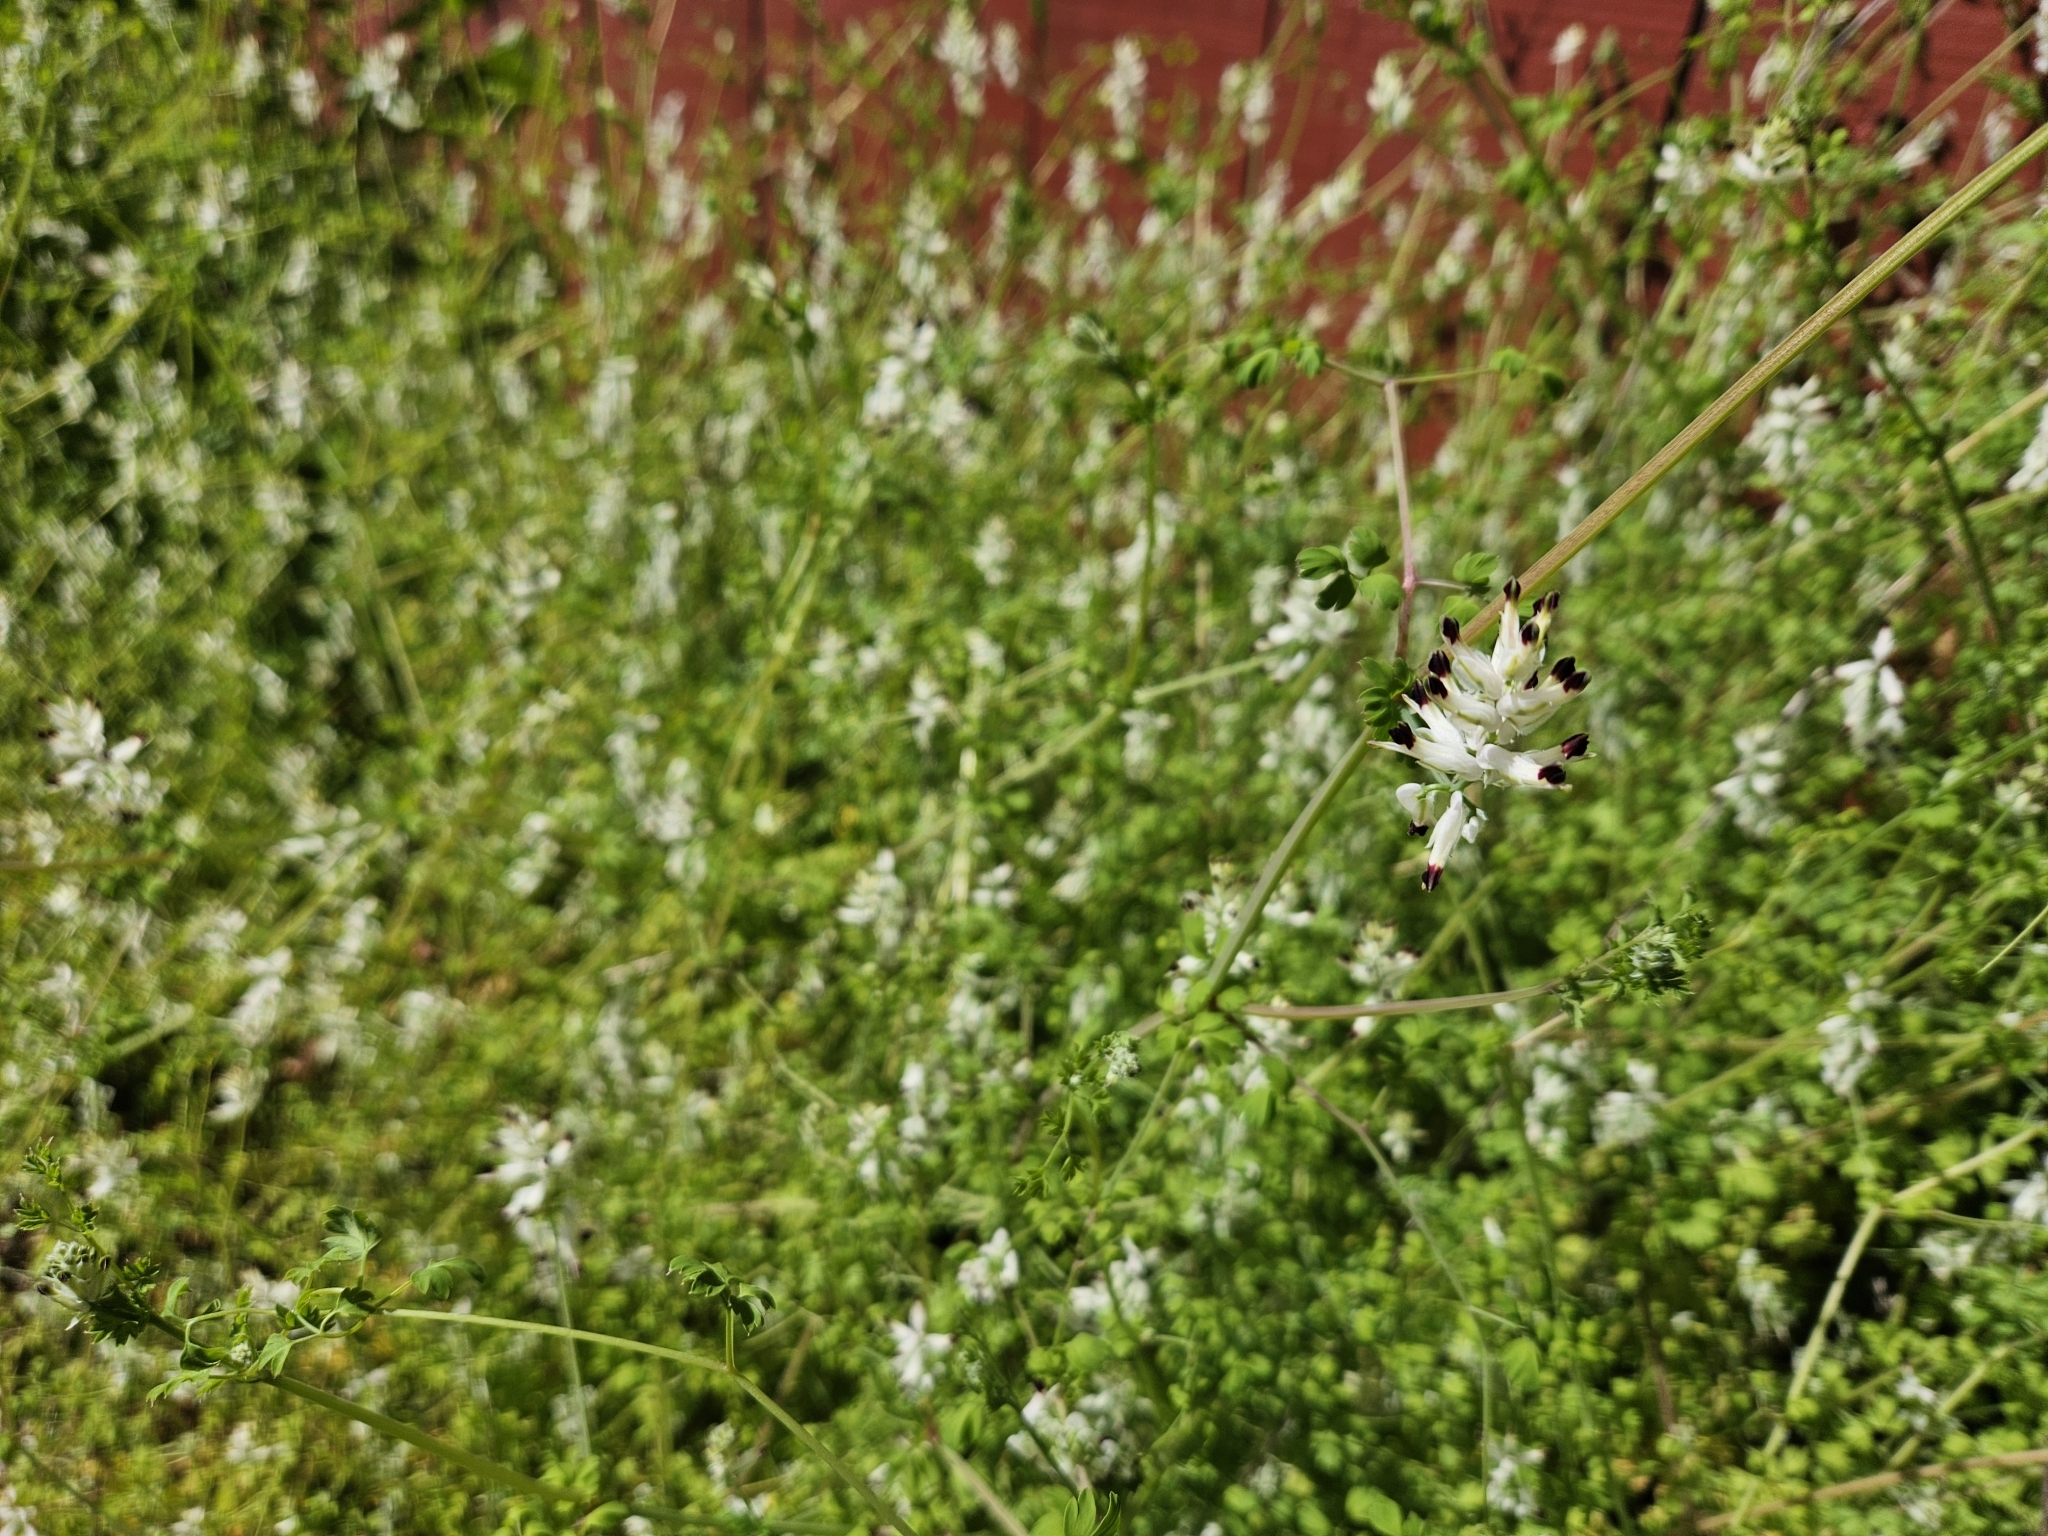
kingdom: Plantae
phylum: Tracheophyta
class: Magnoliopsida
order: Ranunculales
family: Papaveraceae
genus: Fumaria
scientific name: Fumaria capreolata
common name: White ramping-fumitory
